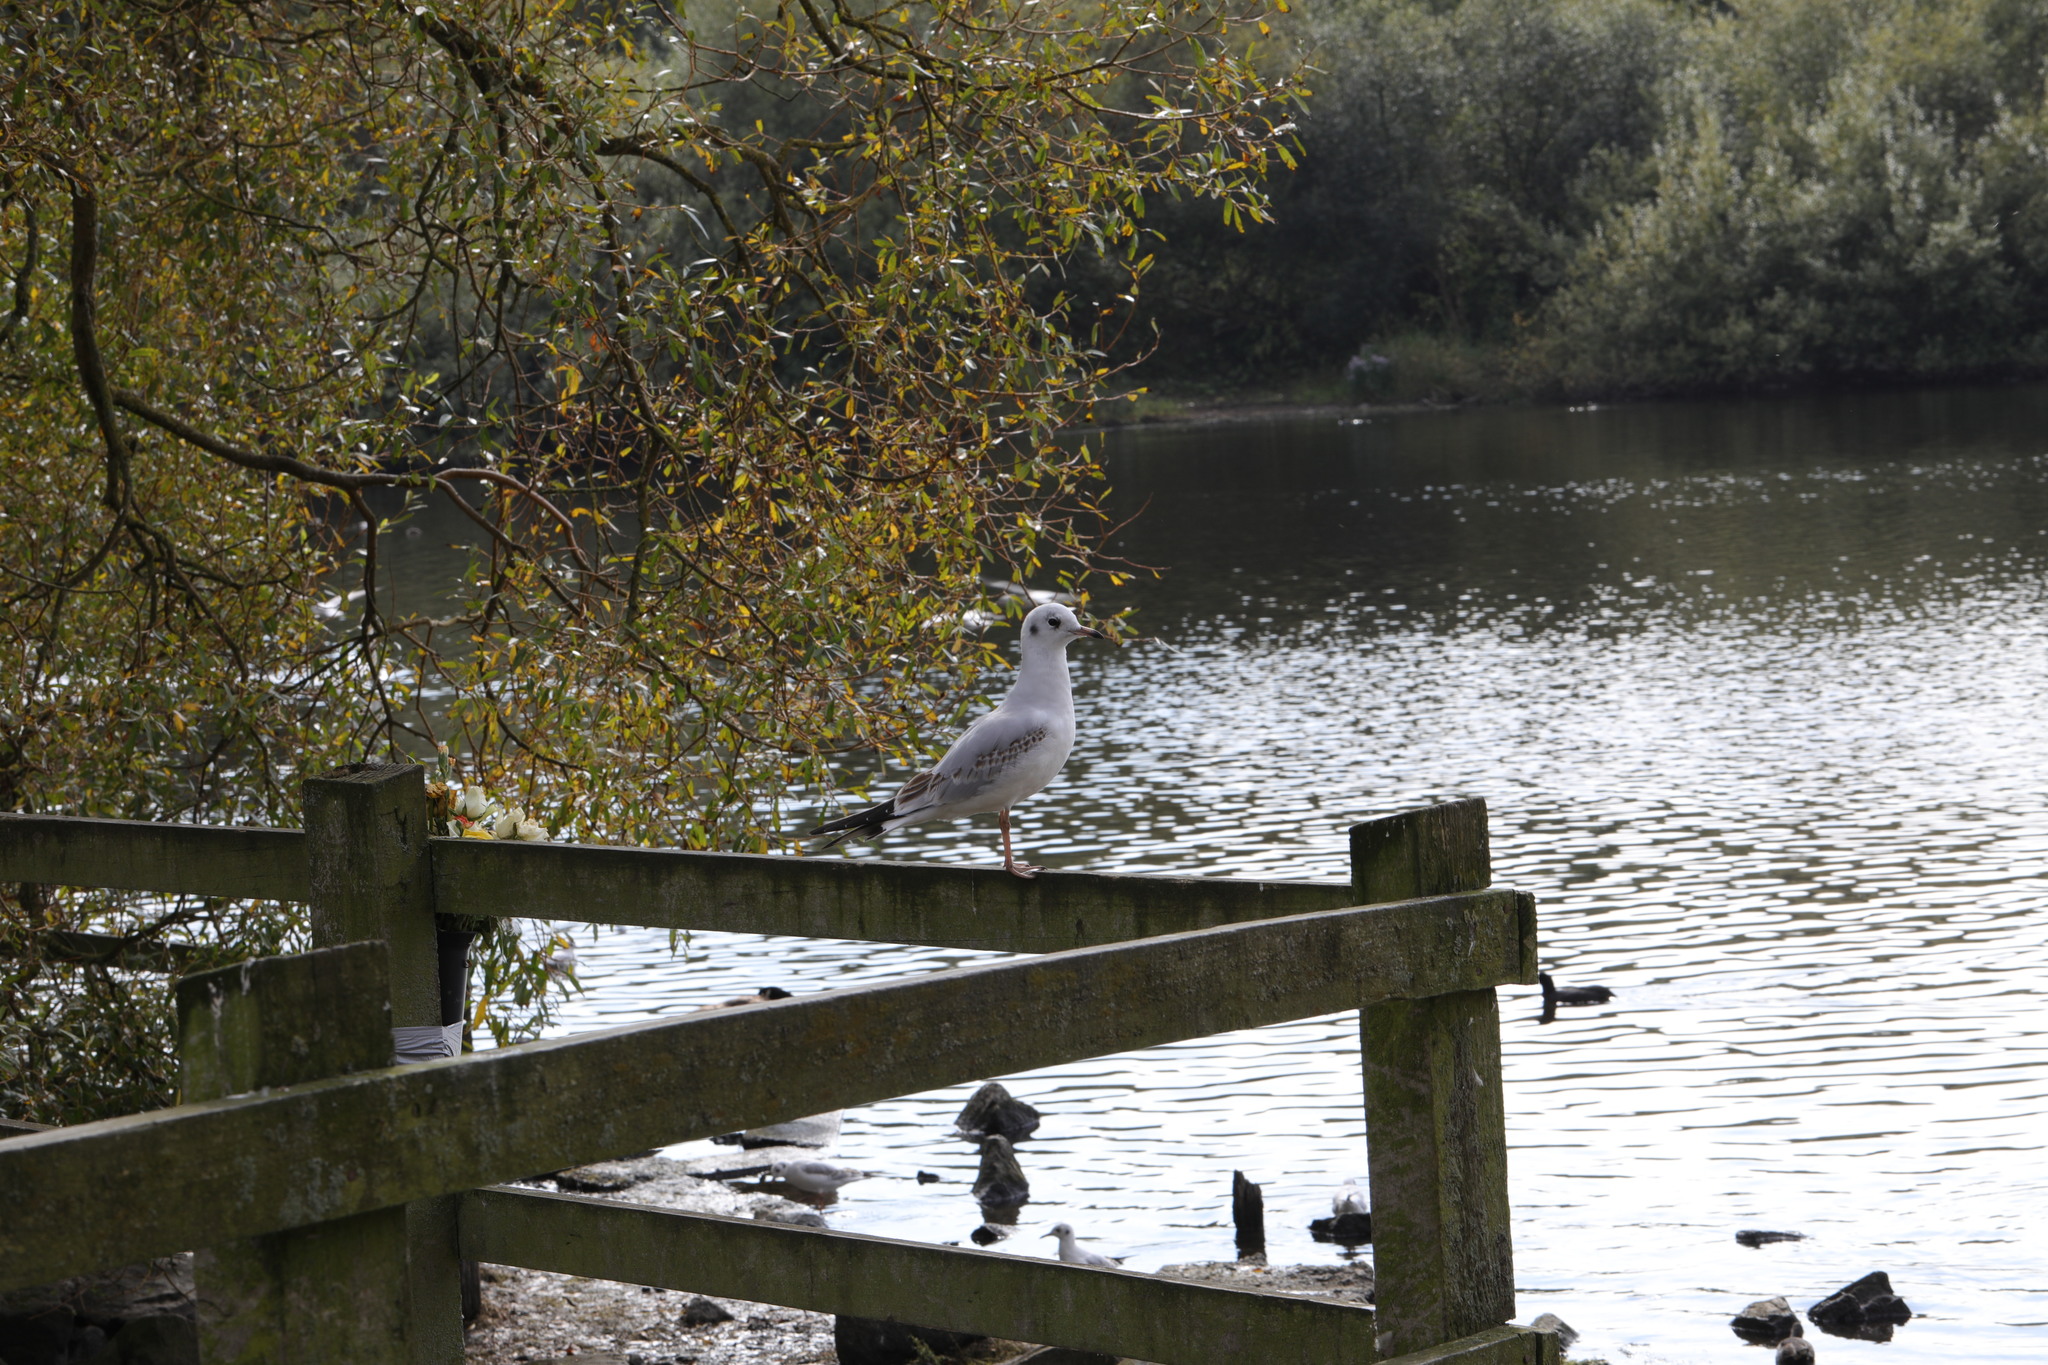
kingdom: Animalia
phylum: Chordata
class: Aves
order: Charadriiformes
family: Laridae
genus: Chroicocephalus
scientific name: Chroicocephalus ridibundus
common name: Black-headed gull
